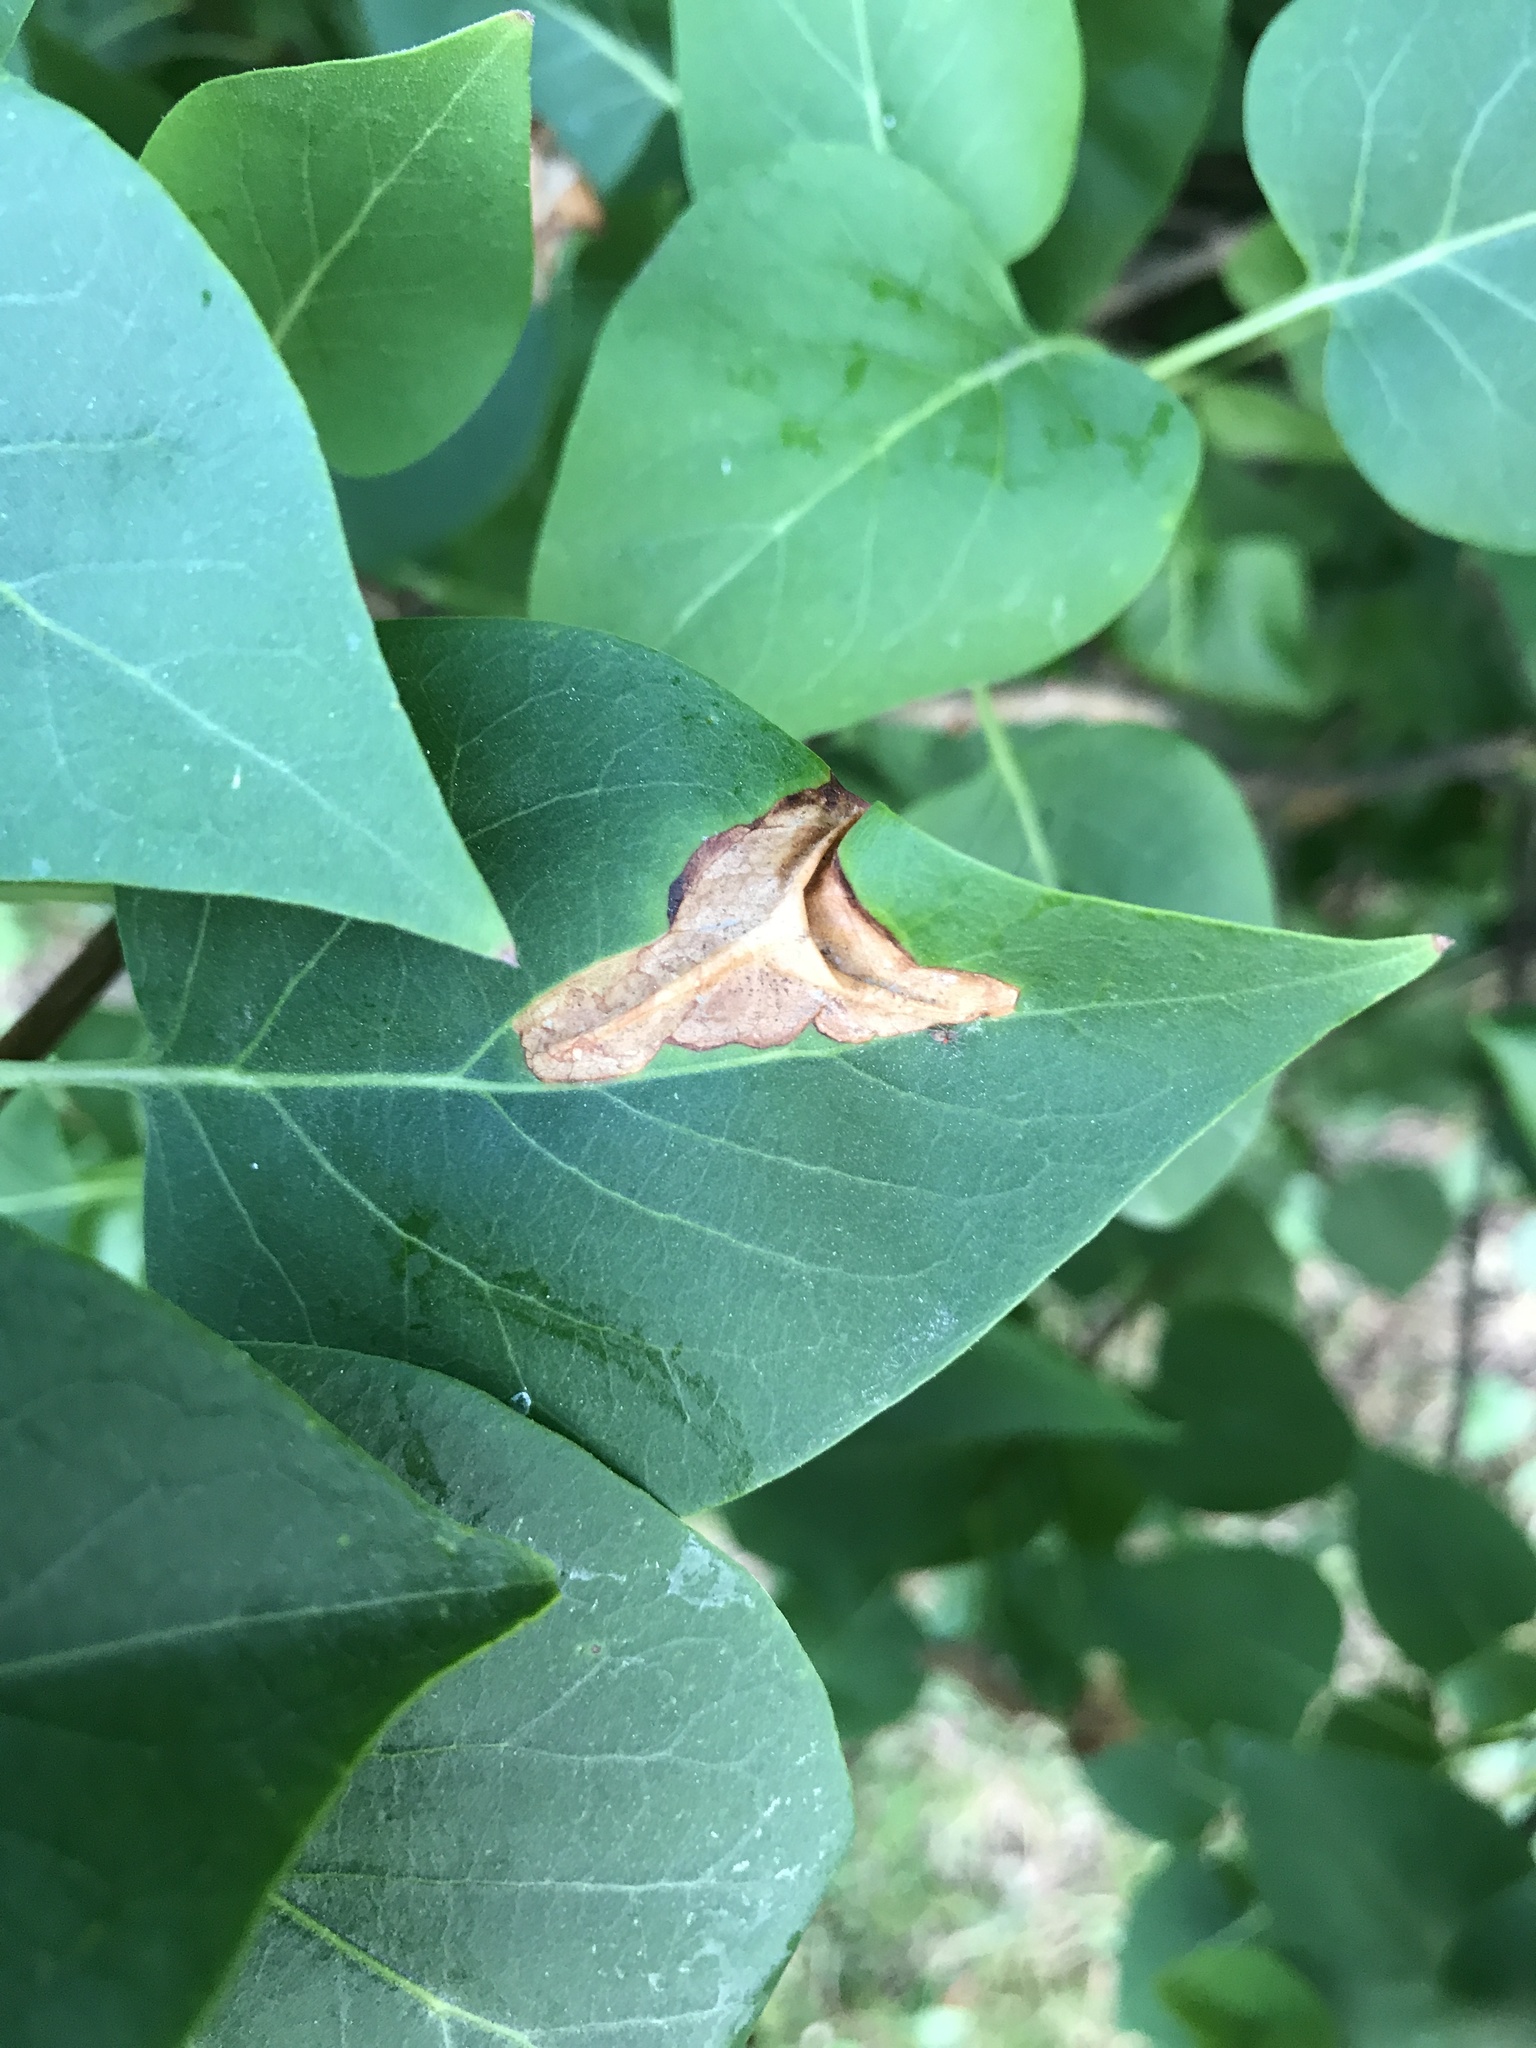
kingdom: Animalia
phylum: Arthropoda
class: Insecta
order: Lepidoptera
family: Gracillariidae
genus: Gracillaria
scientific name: Gracillaria syringella
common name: Common slender
